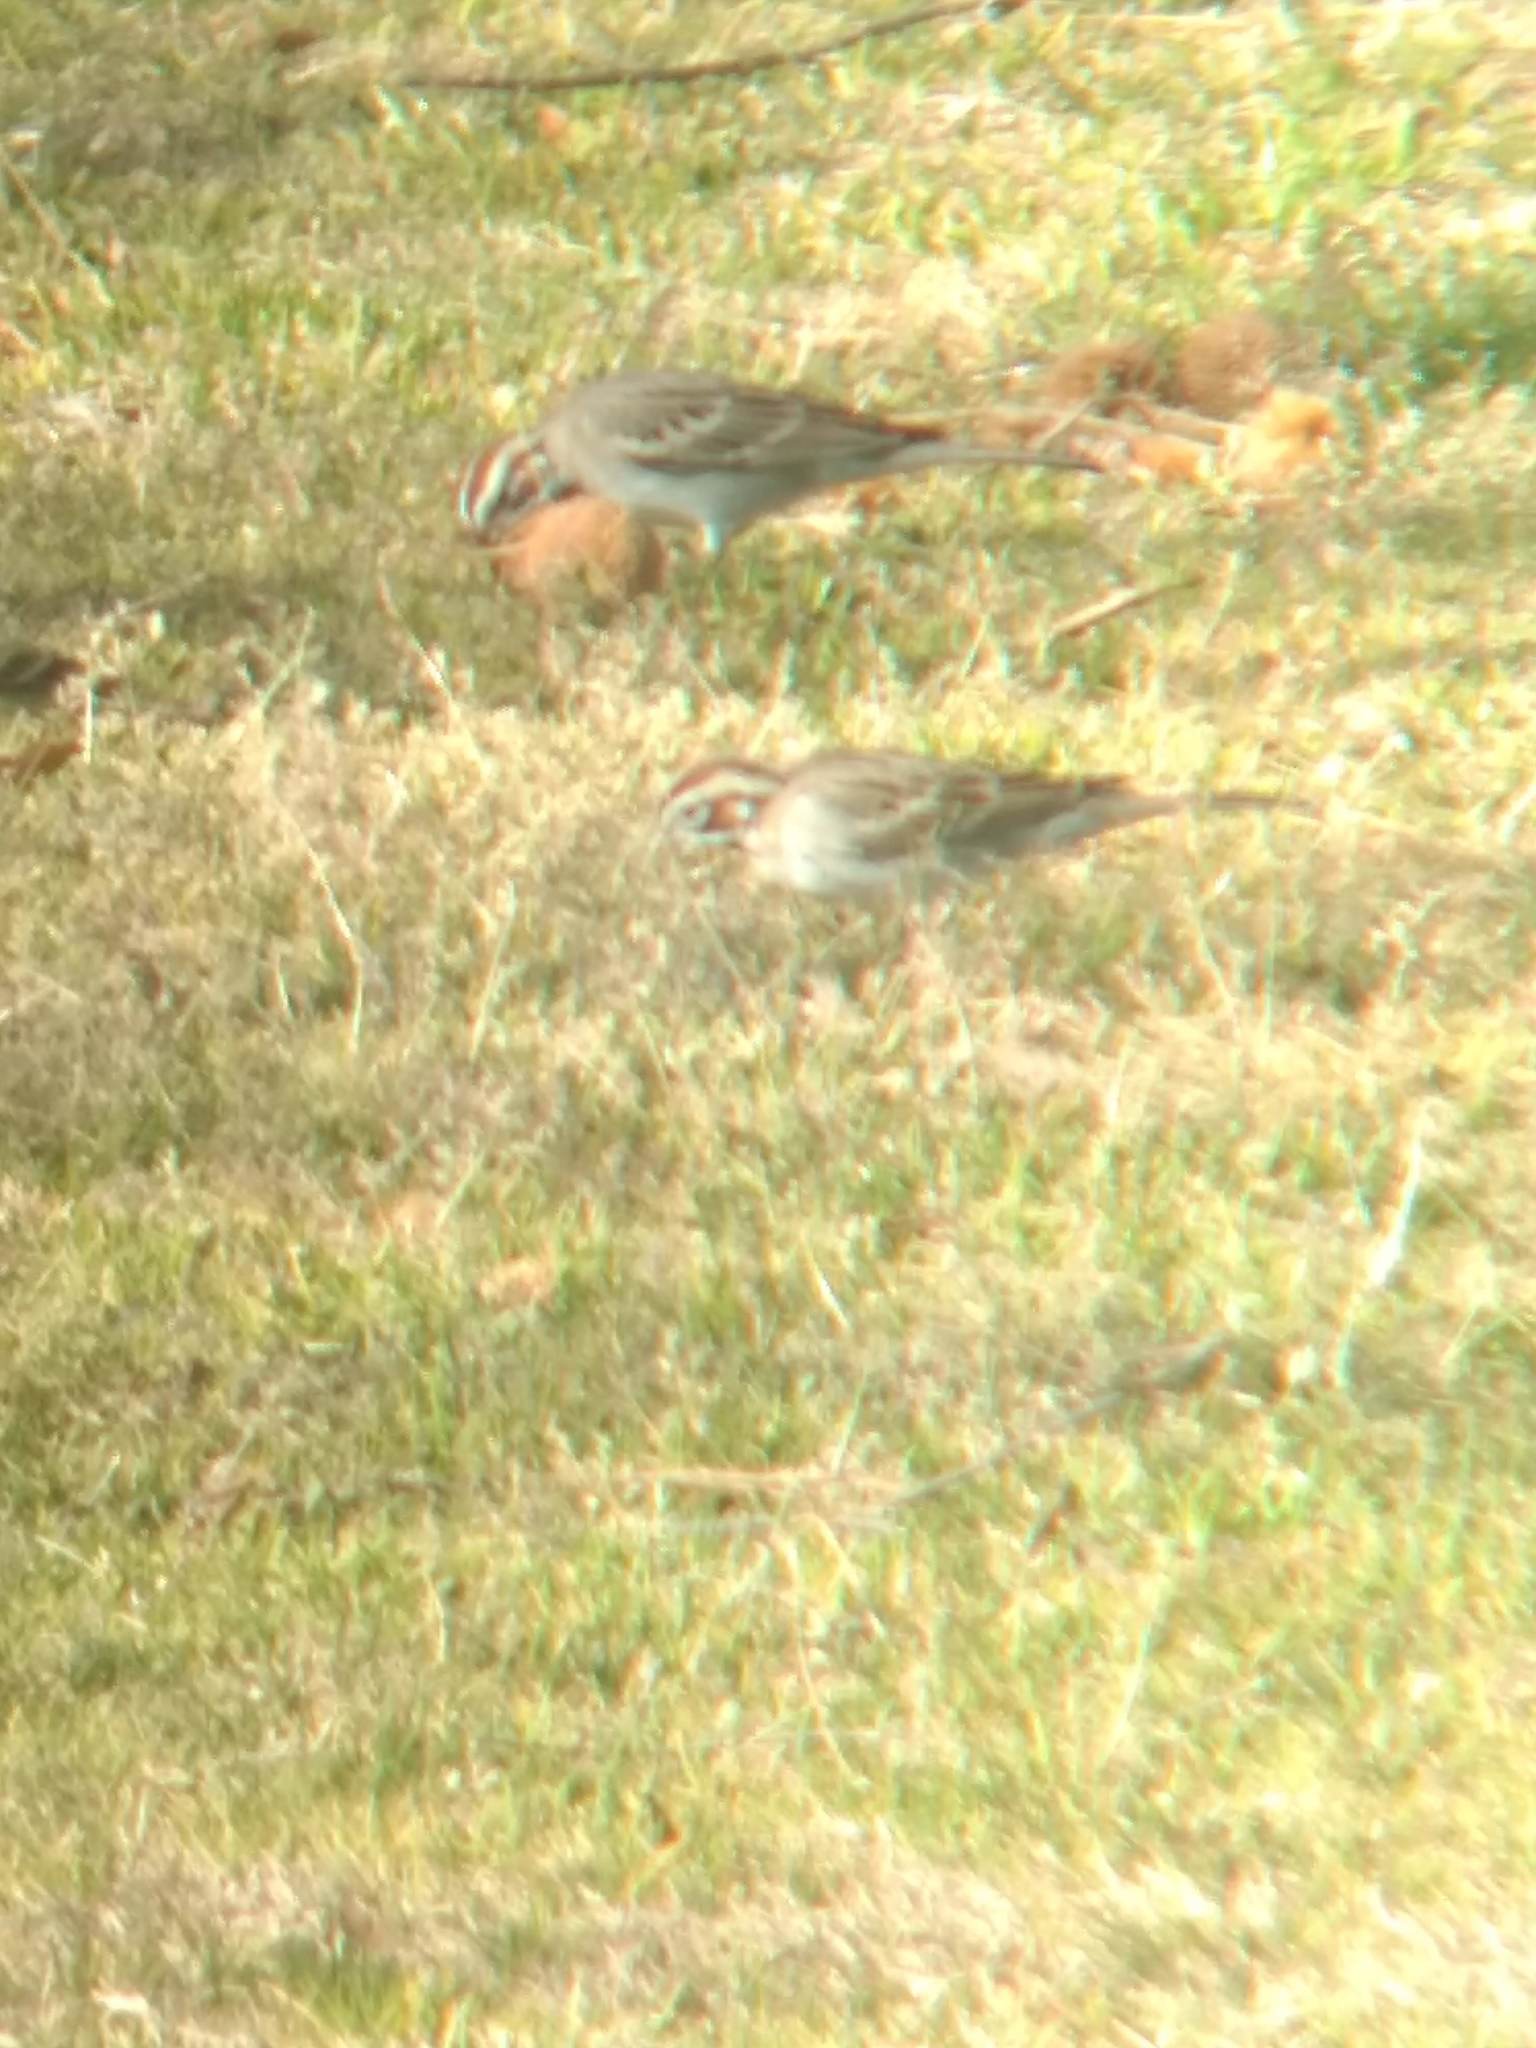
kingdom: Animalia
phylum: Chordata
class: Aves
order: Passeriformes
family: Passerellidae
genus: Chondestes
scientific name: Chondestes grammacus
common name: Lark sparrow
